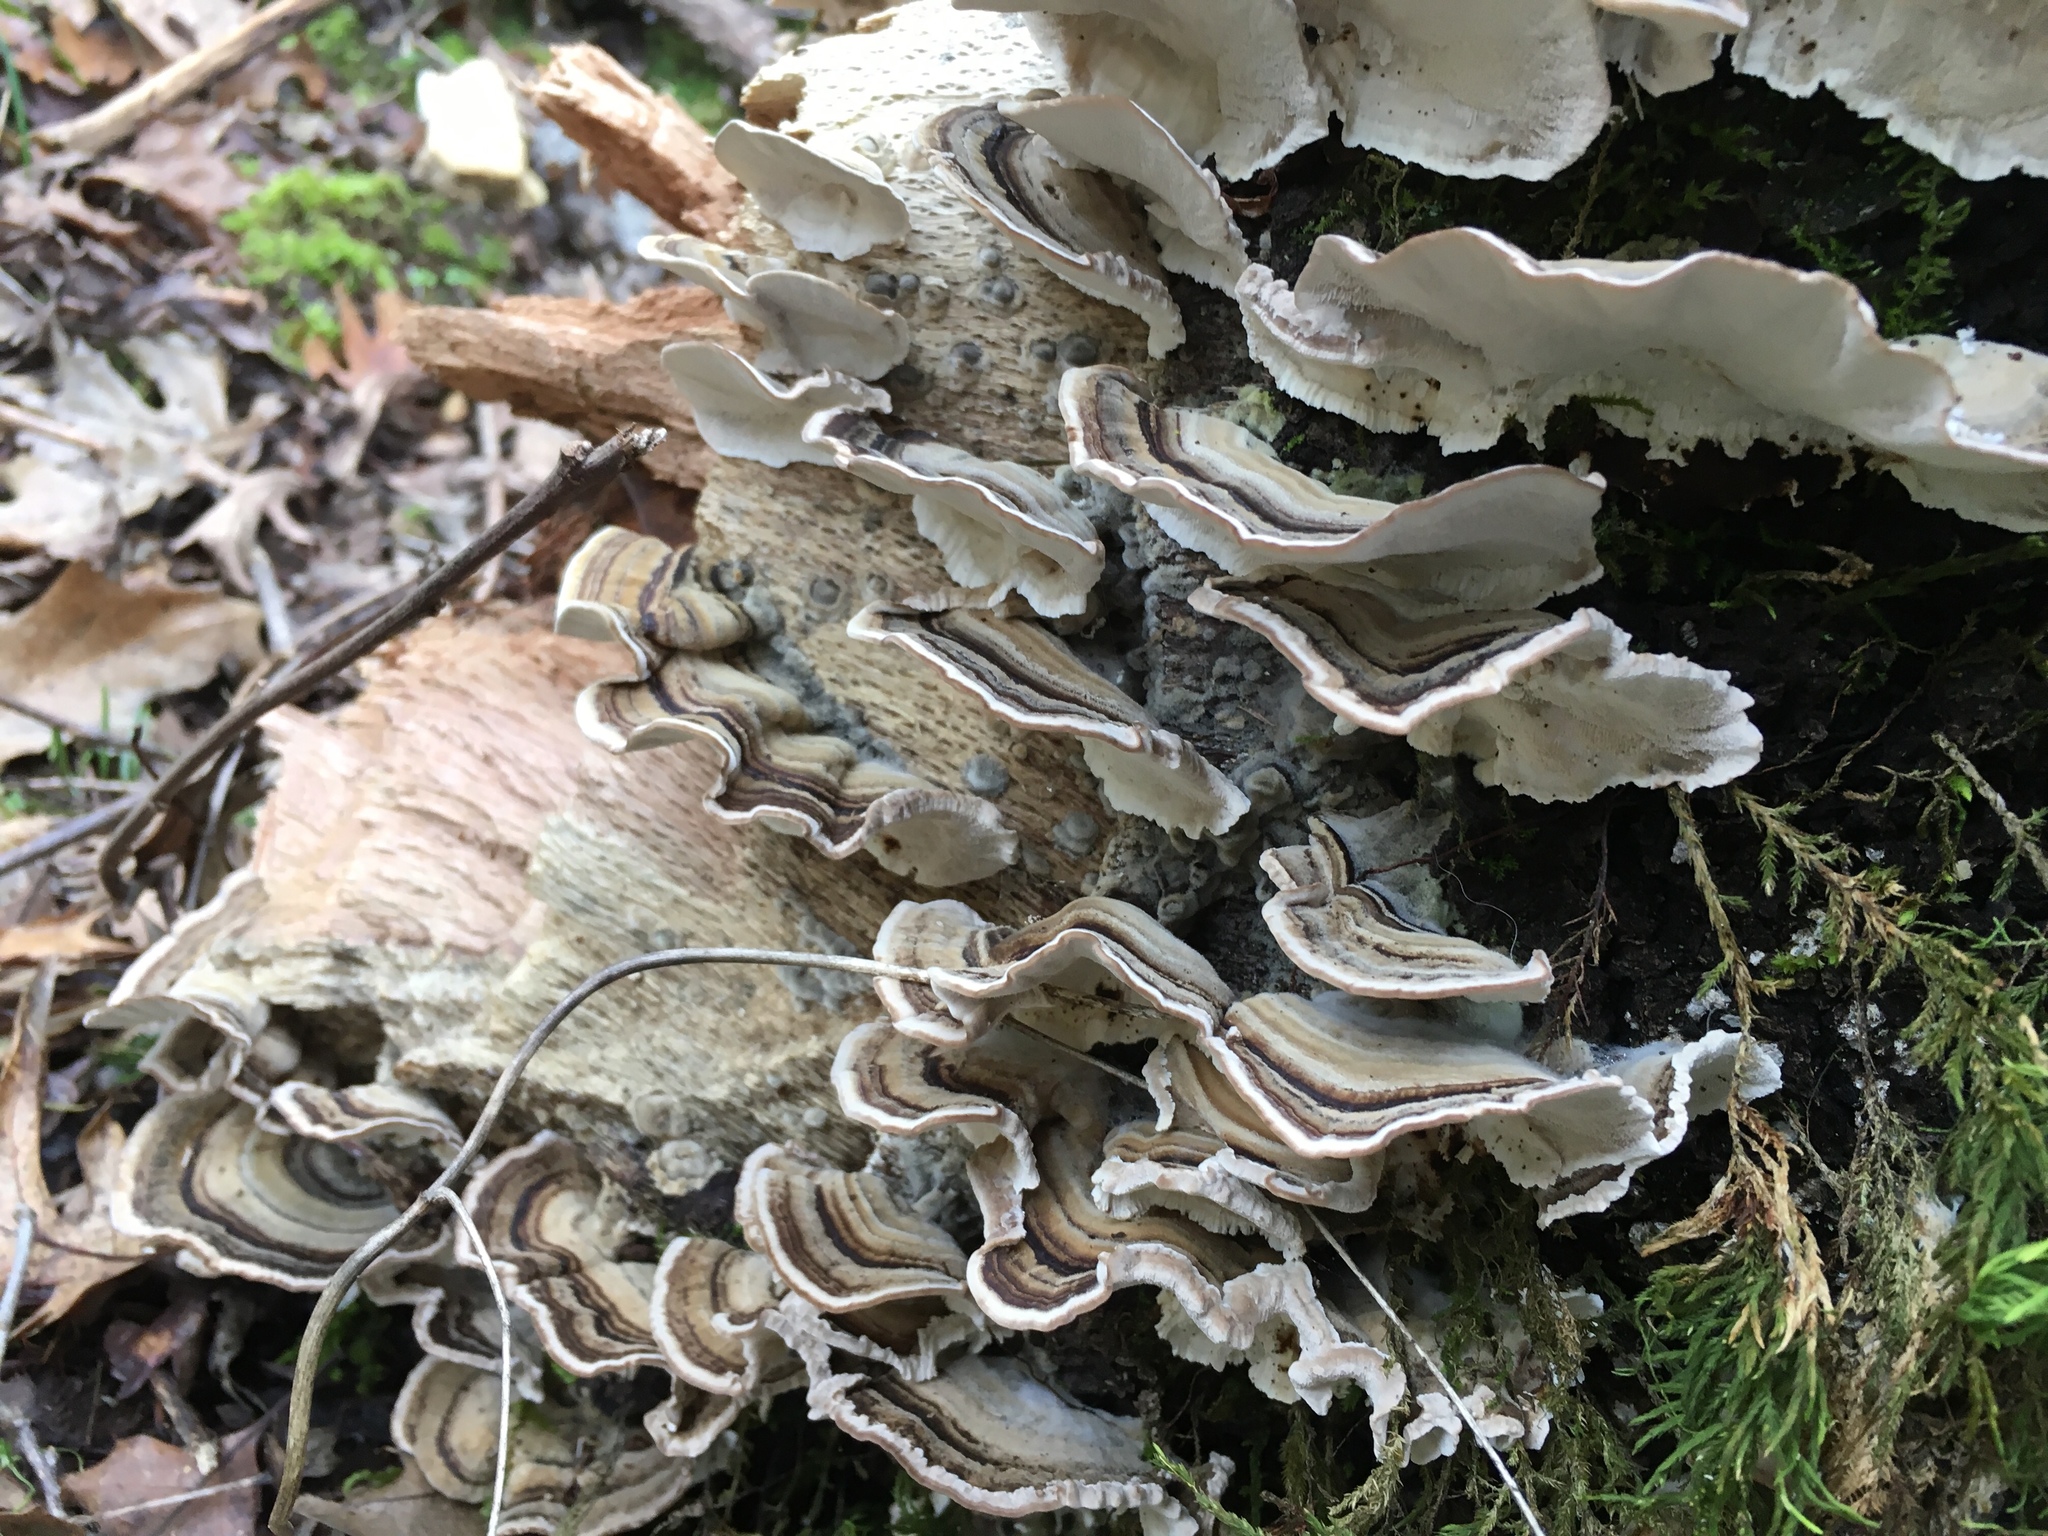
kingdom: Fungi
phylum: Basidiomycota
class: Agaricomycetes
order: Polyporales
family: Polyporaceae
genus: Trametes
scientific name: Trametes versicolor
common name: Turkeytail
